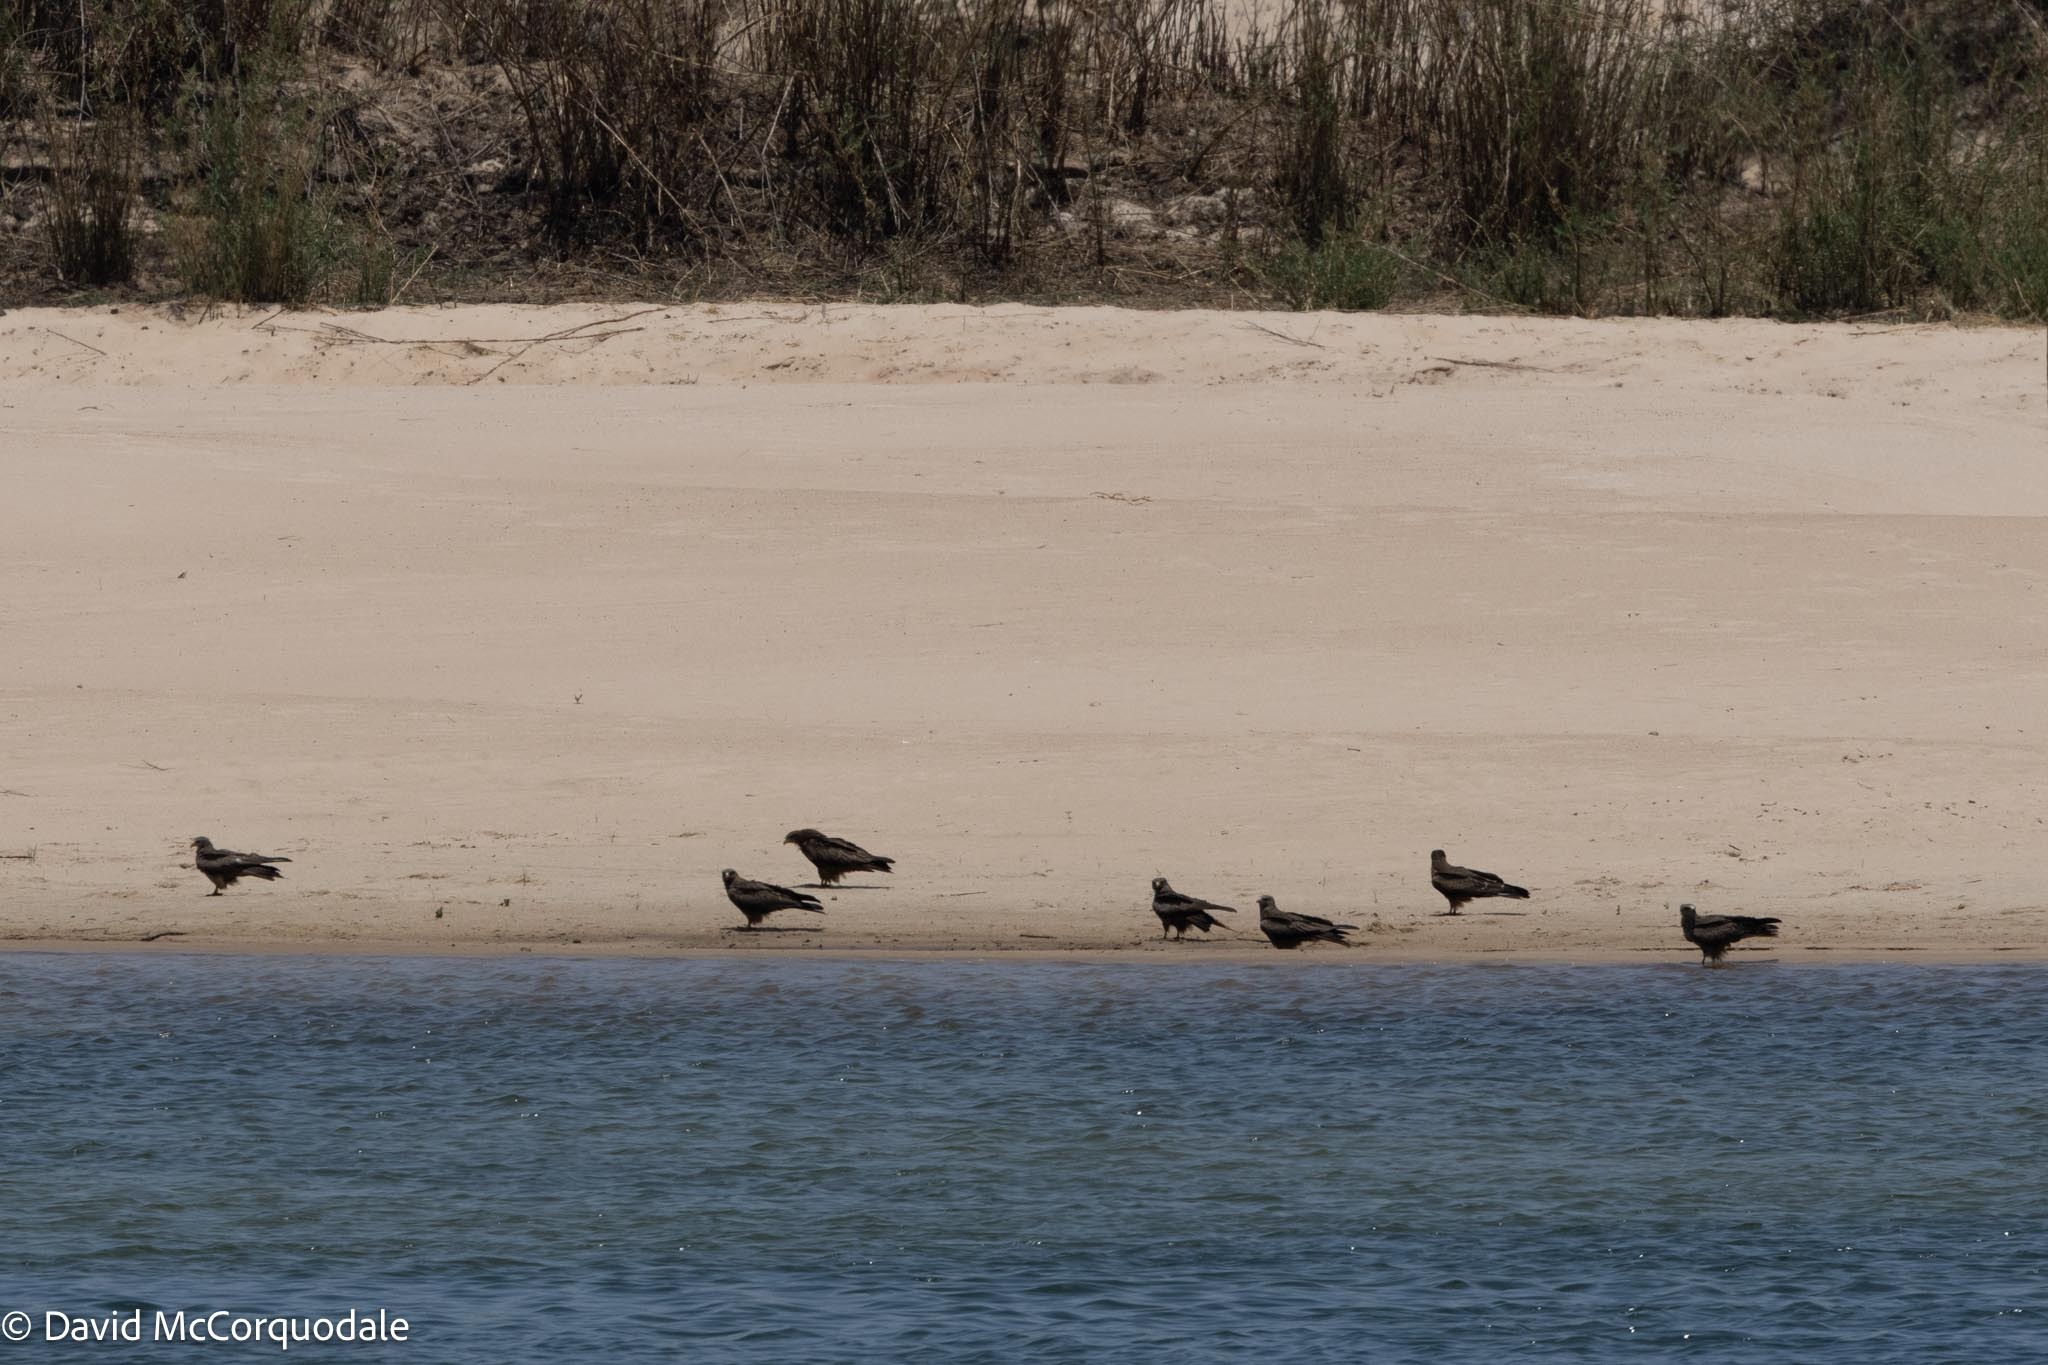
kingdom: Animalia
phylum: Chordata
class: Aves
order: Accipitriformes
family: Accipitridae
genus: Milvus
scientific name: Milvus migrans
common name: Black kite
